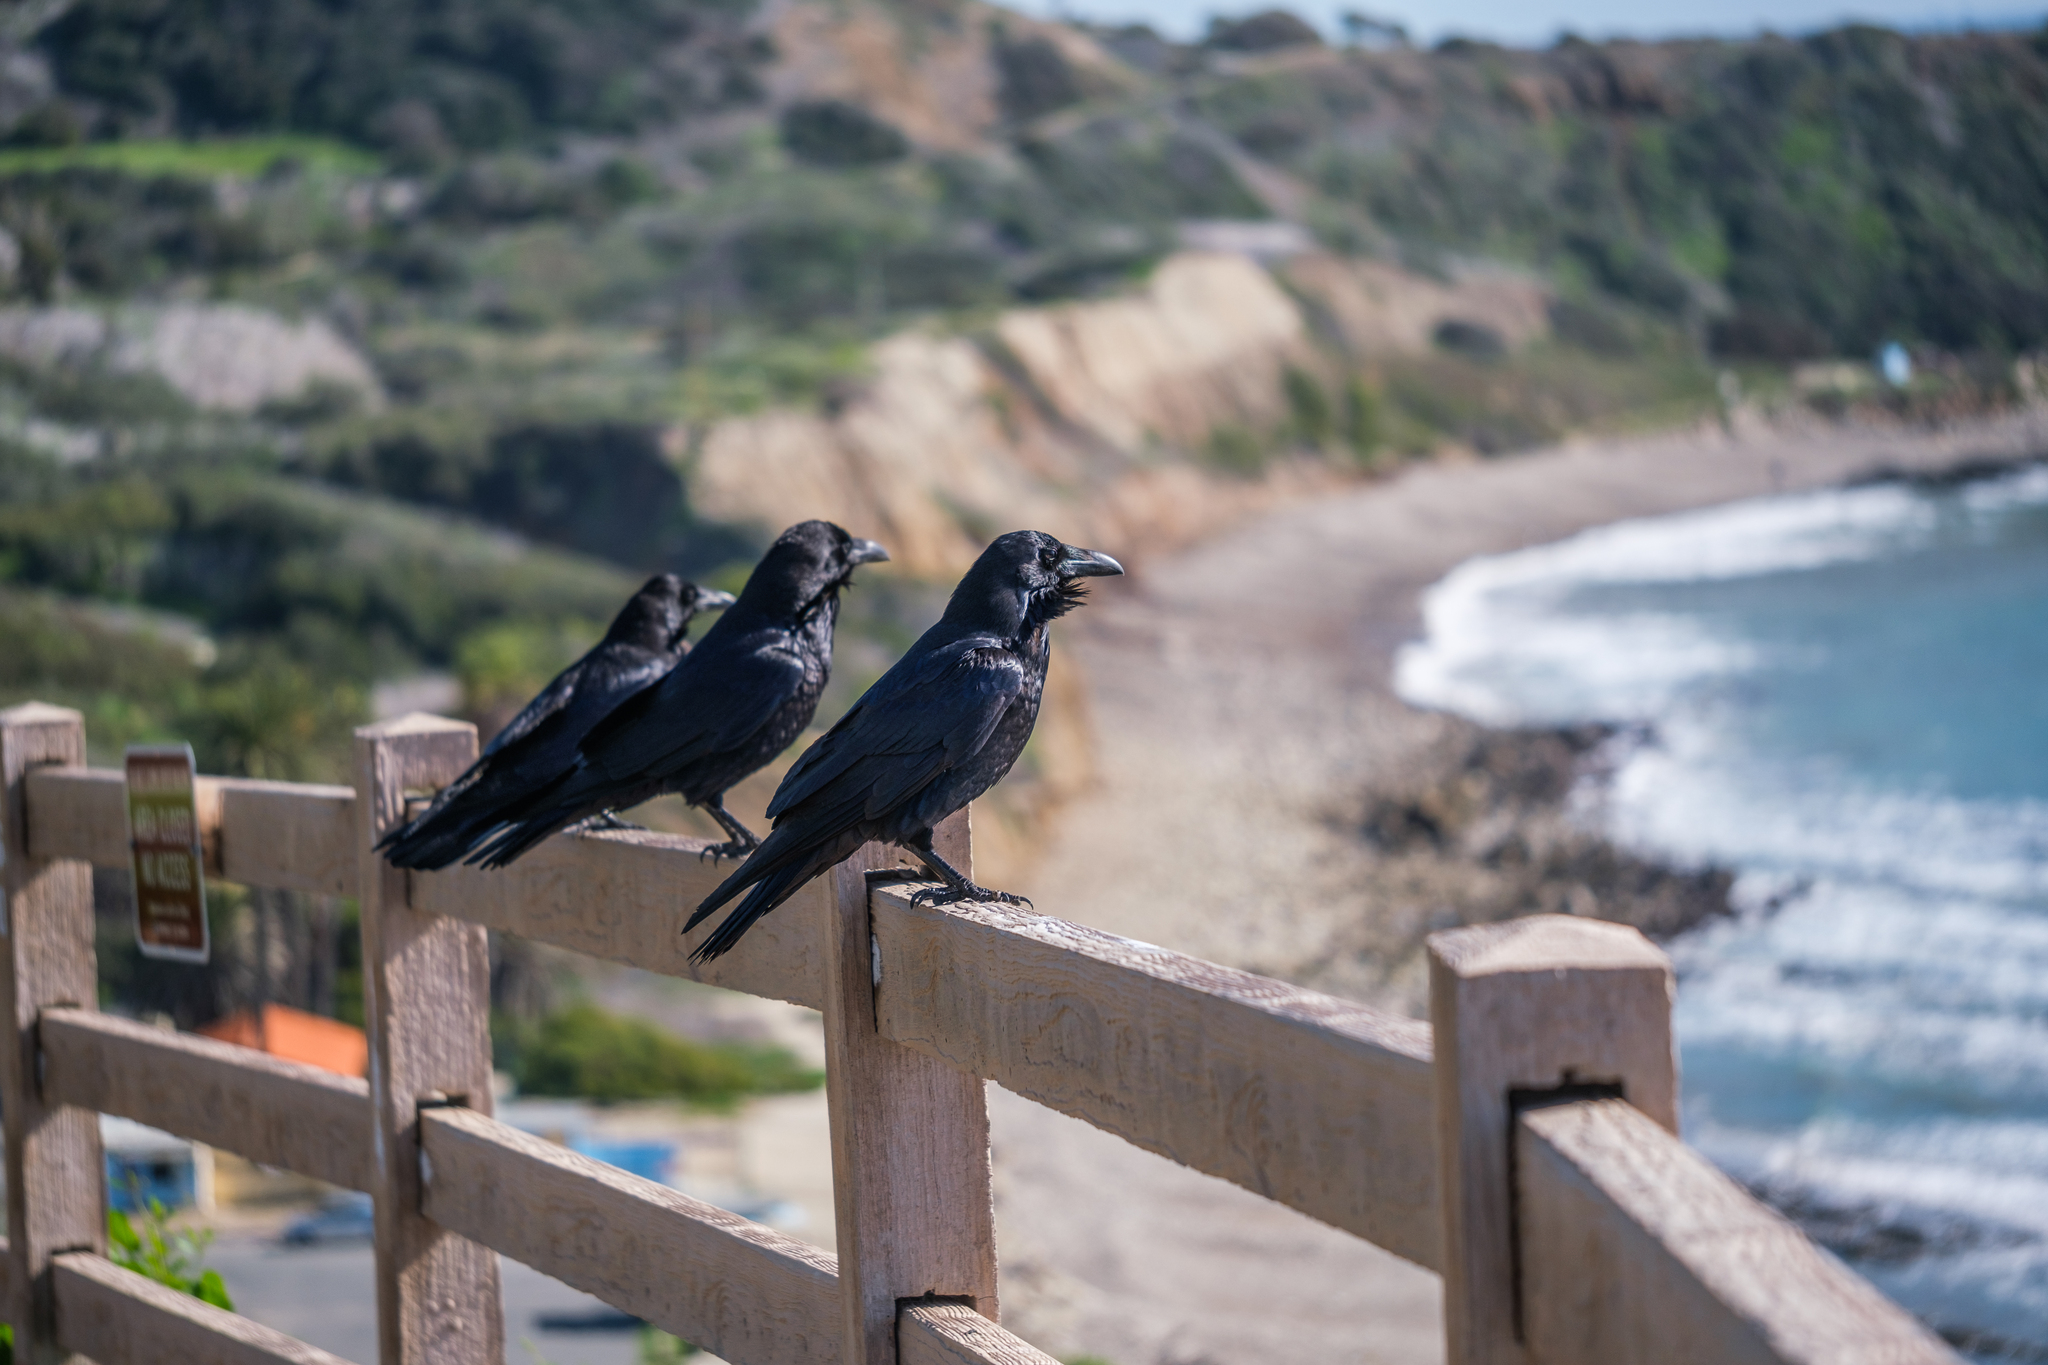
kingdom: Animalia
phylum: Chordata
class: Aves
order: Passeriformes
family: Corvidae
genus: Corvus
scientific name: Corvus corax
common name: Common raven
